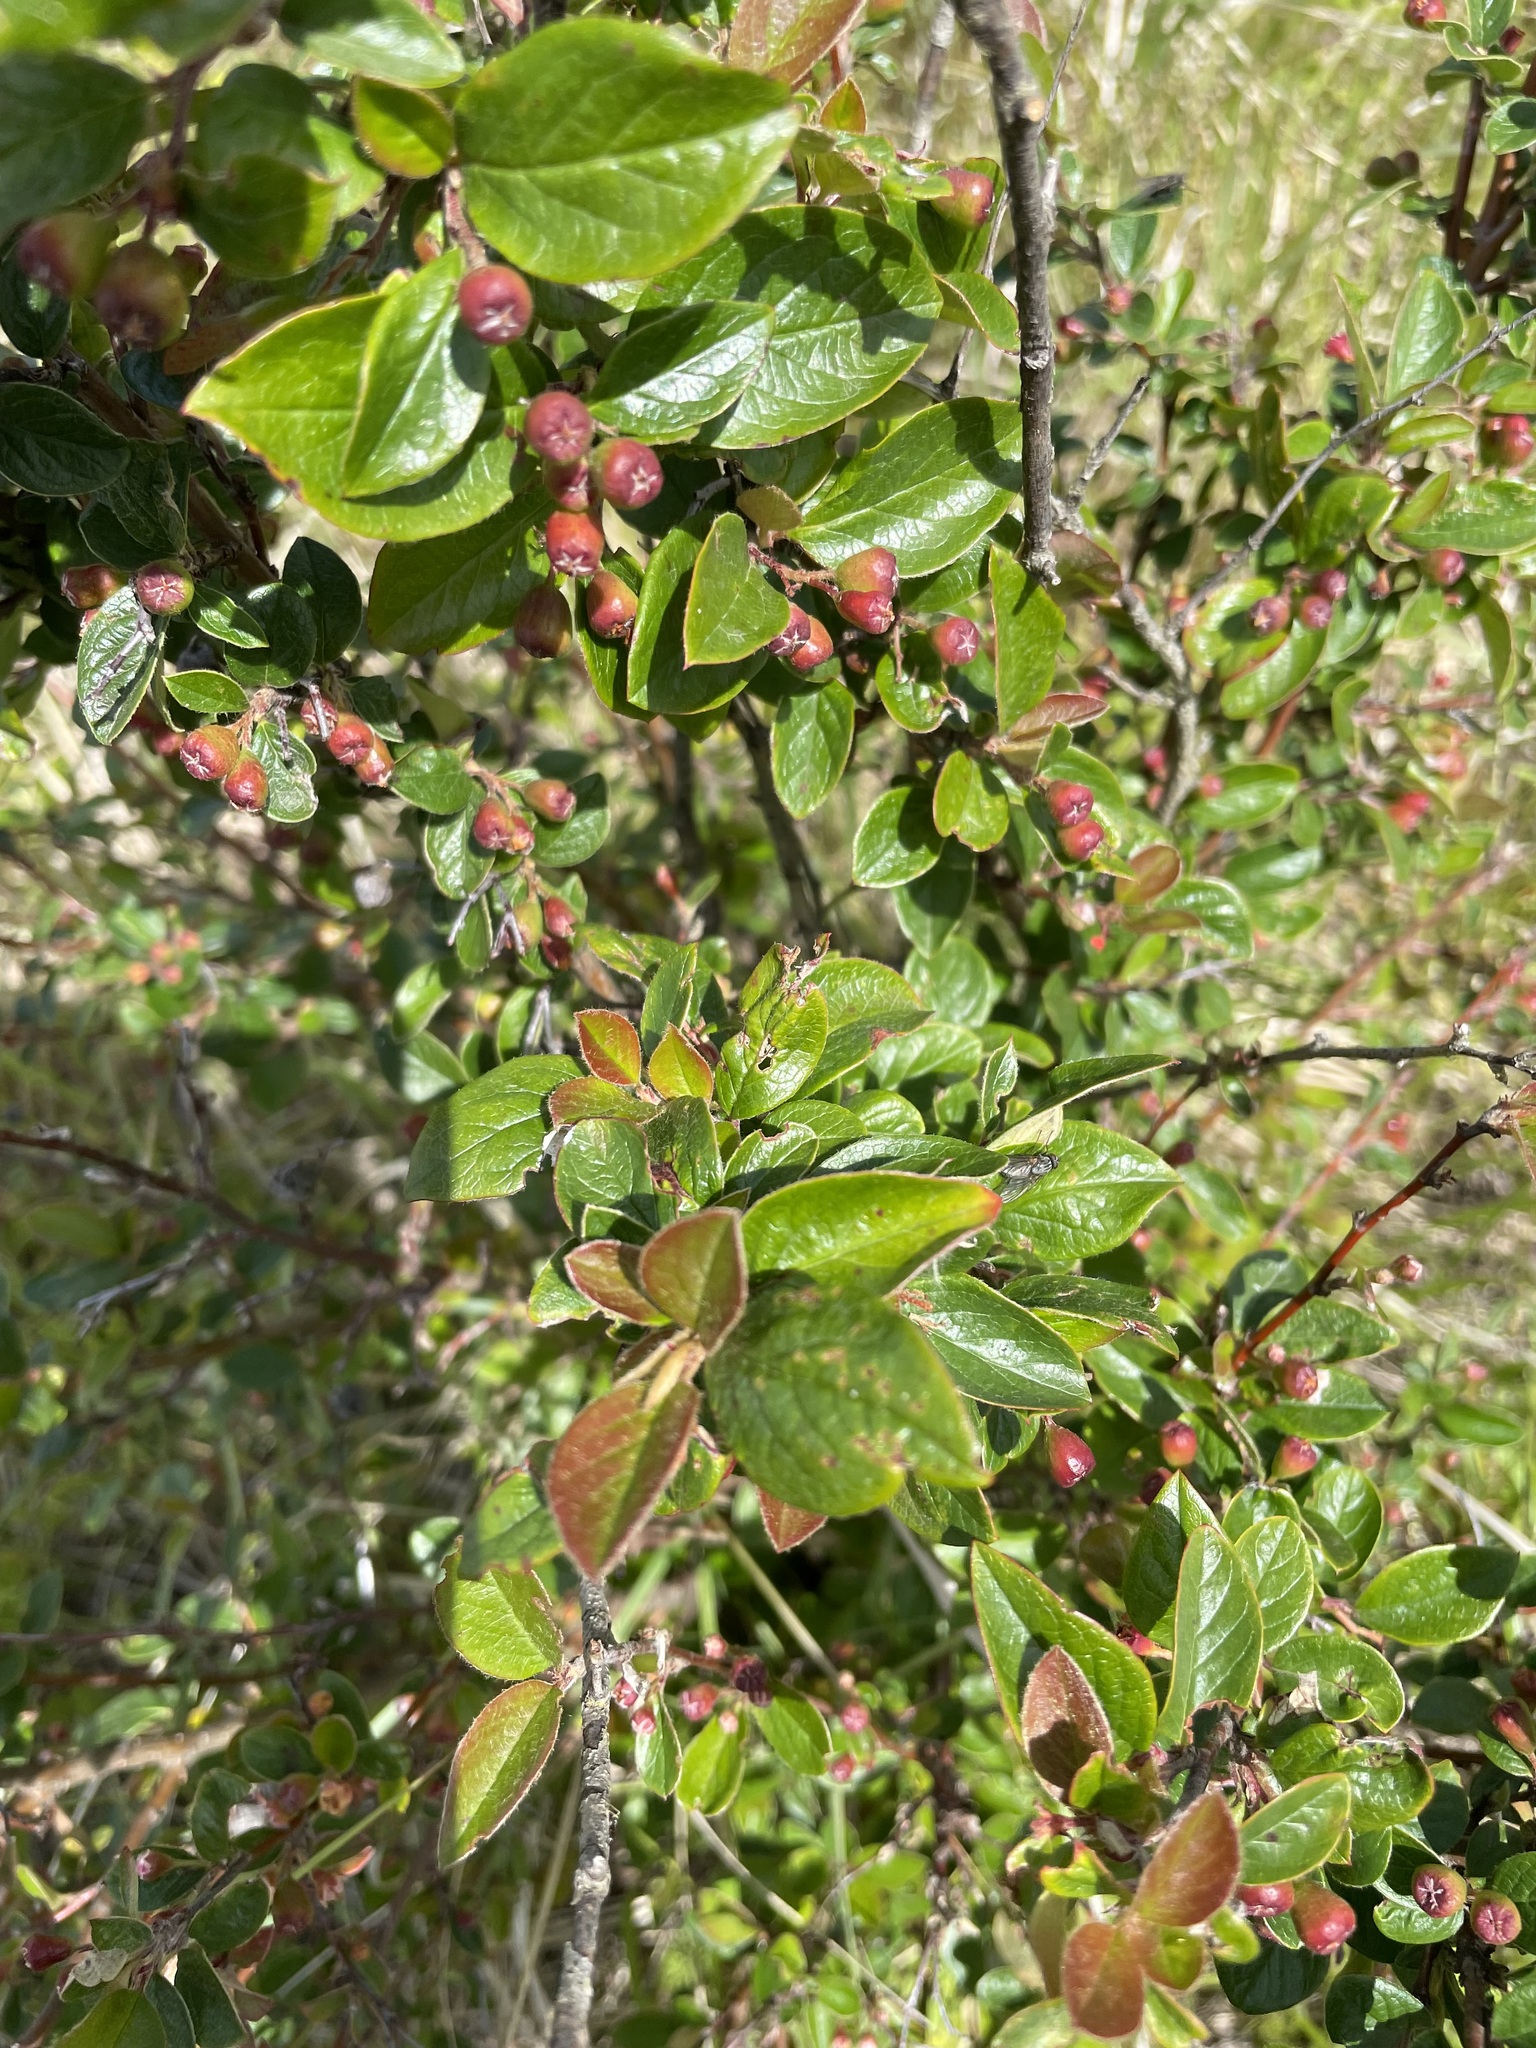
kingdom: Plantae
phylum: Tracheophyta
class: Magnoliopsida
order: Rosales
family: Rosaceae
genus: Cotoneaster
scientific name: Cotoneaster acutifolius
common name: Peking cotoneaster
